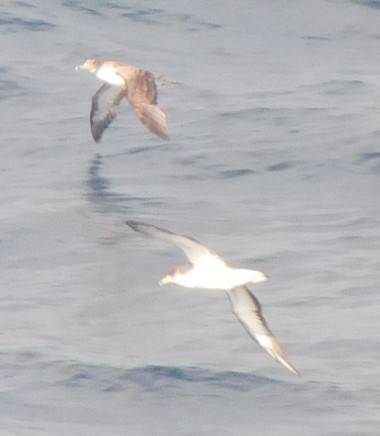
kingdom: Animalia
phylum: Chordata
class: Aves
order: Procellariiformes
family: Procellariidae
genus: Calonectris
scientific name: Calonectris diomedea
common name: Cory's shearwater
